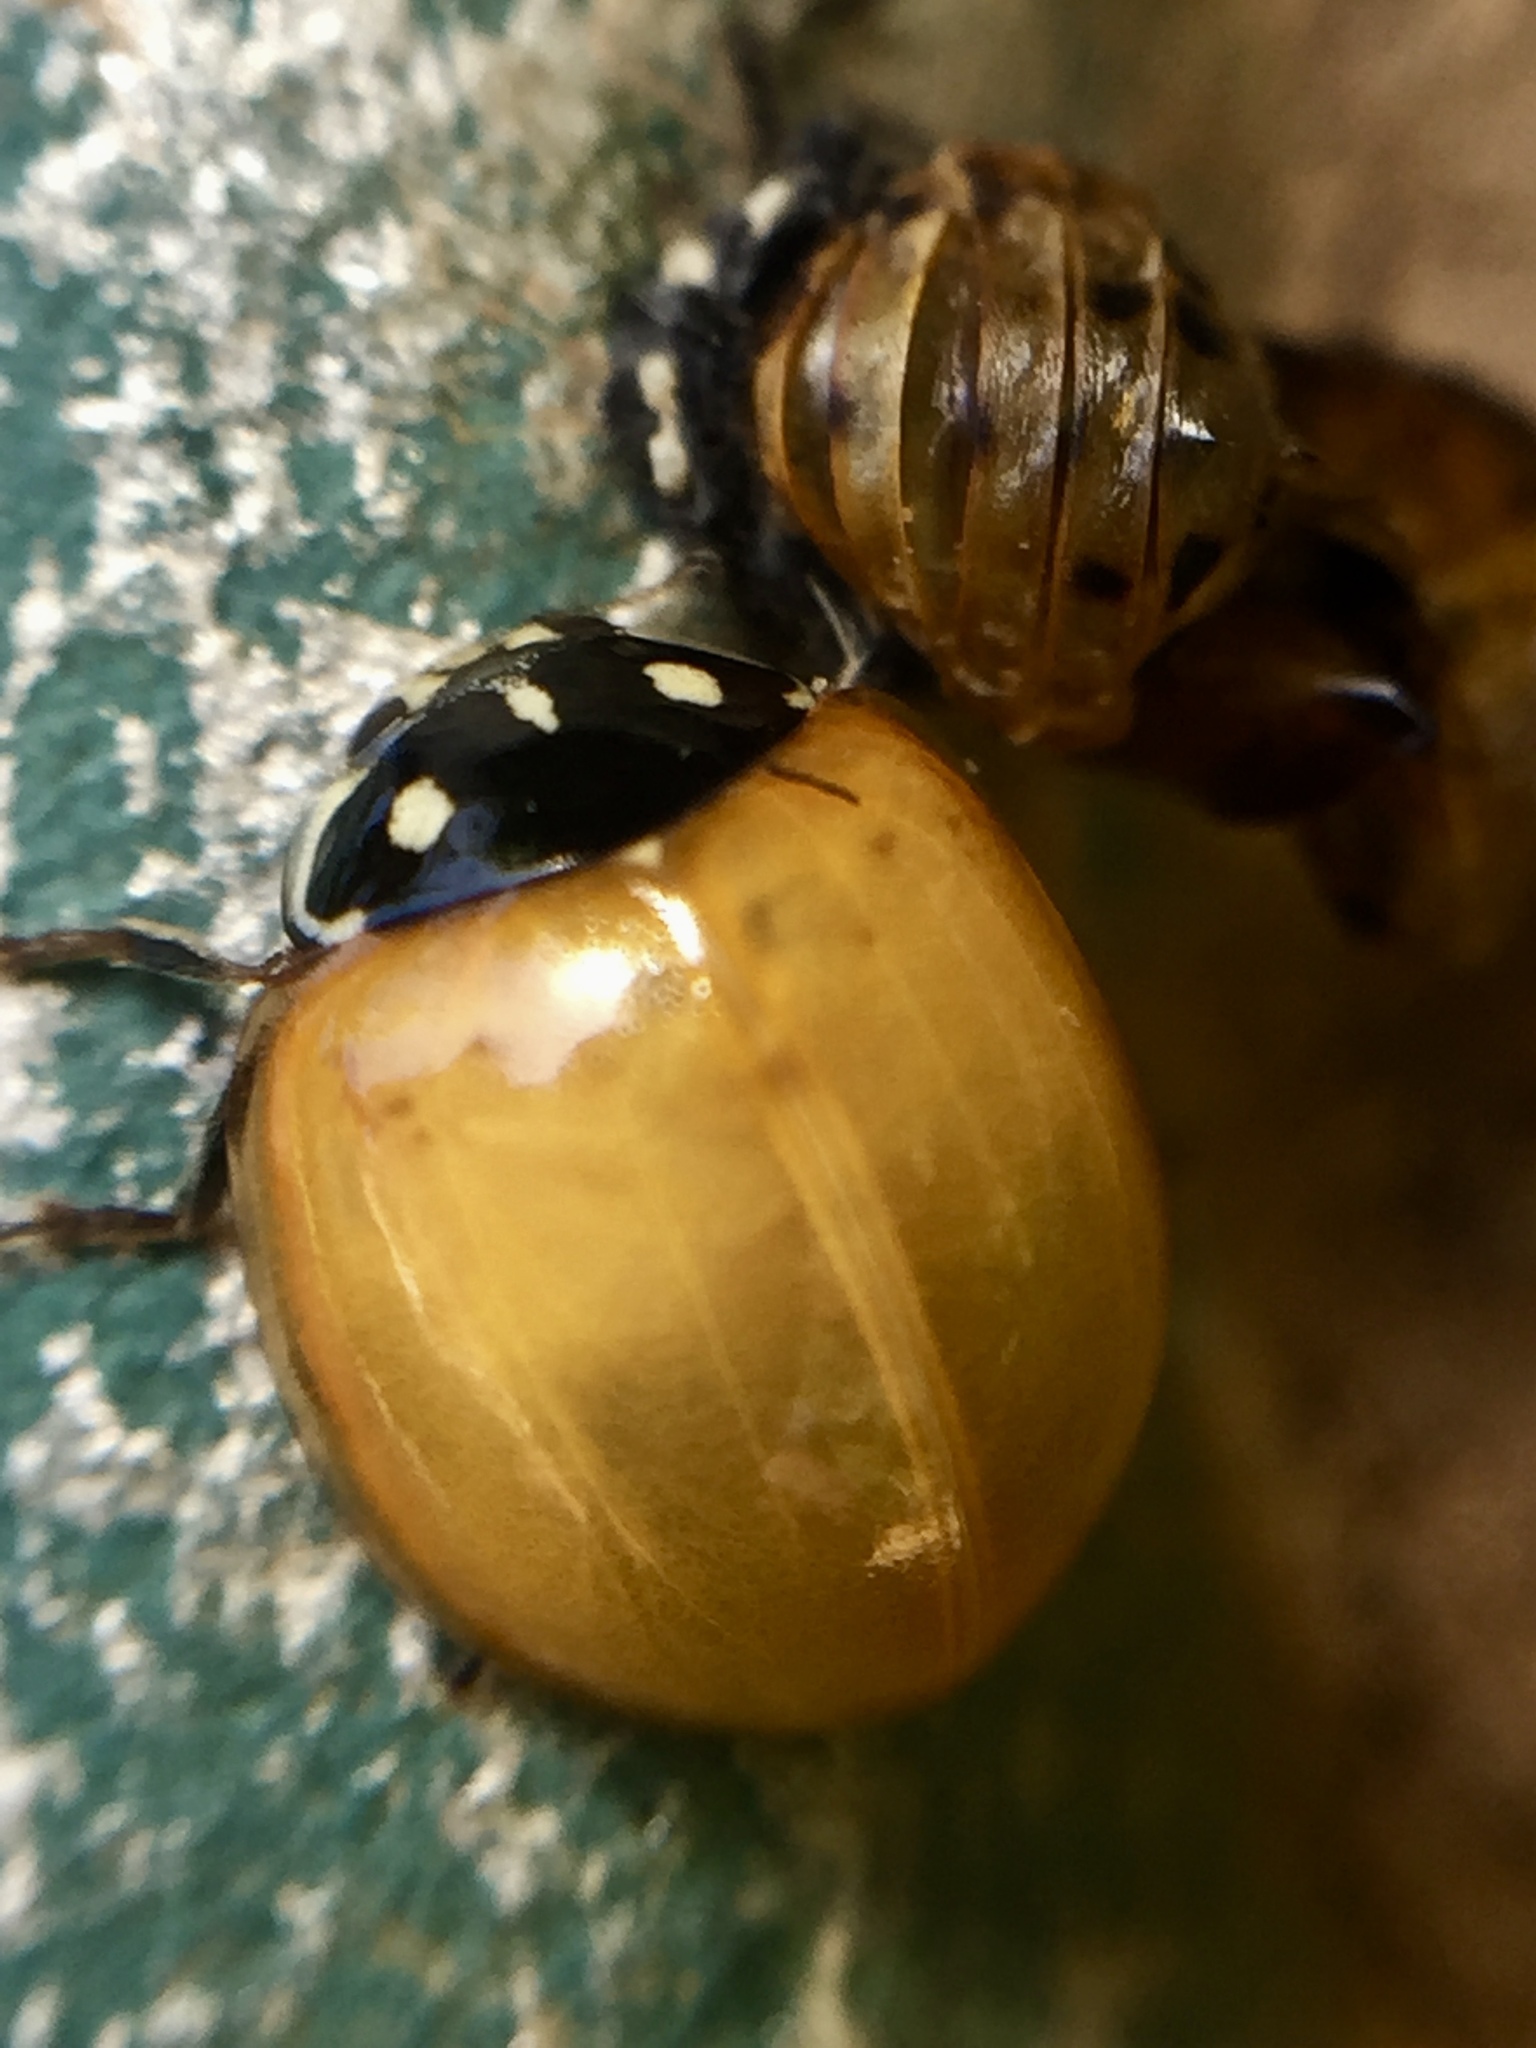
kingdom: Animalia
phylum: Arthropoda
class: Insecta
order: Coleoptera
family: Coccinellidae
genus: Cycloneda
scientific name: Cycloneda sanguinea
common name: Ladybird beetle
